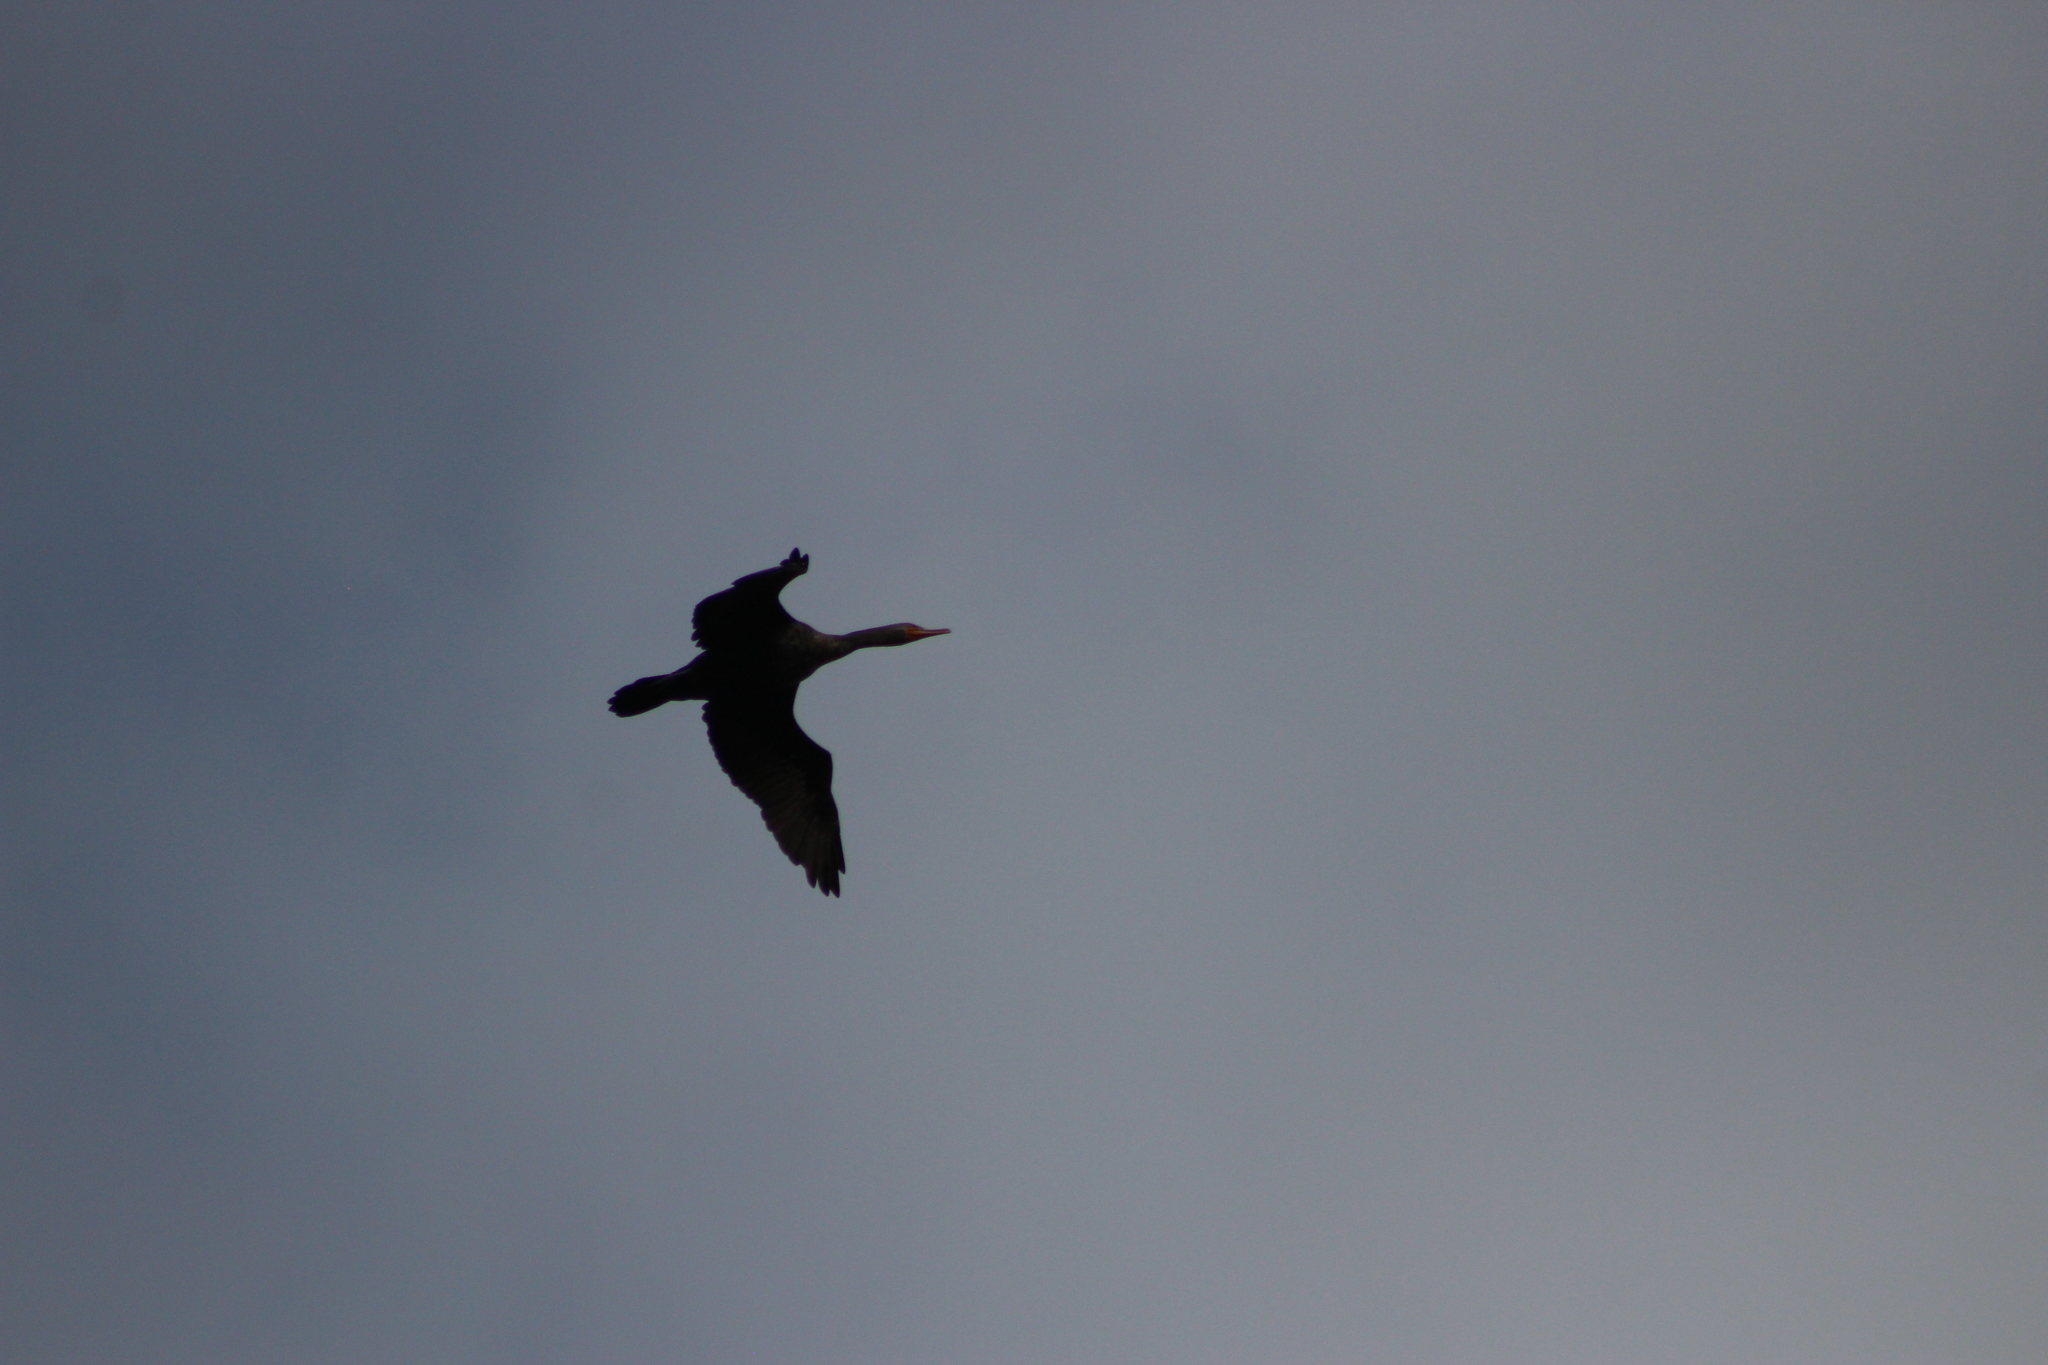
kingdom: Animalia
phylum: Chordata
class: Aves
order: Suliformes
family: Phalacrocoracidae
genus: Phalacrocorax
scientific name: Phalacrocorax auritus
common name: Double-crested cormorant
